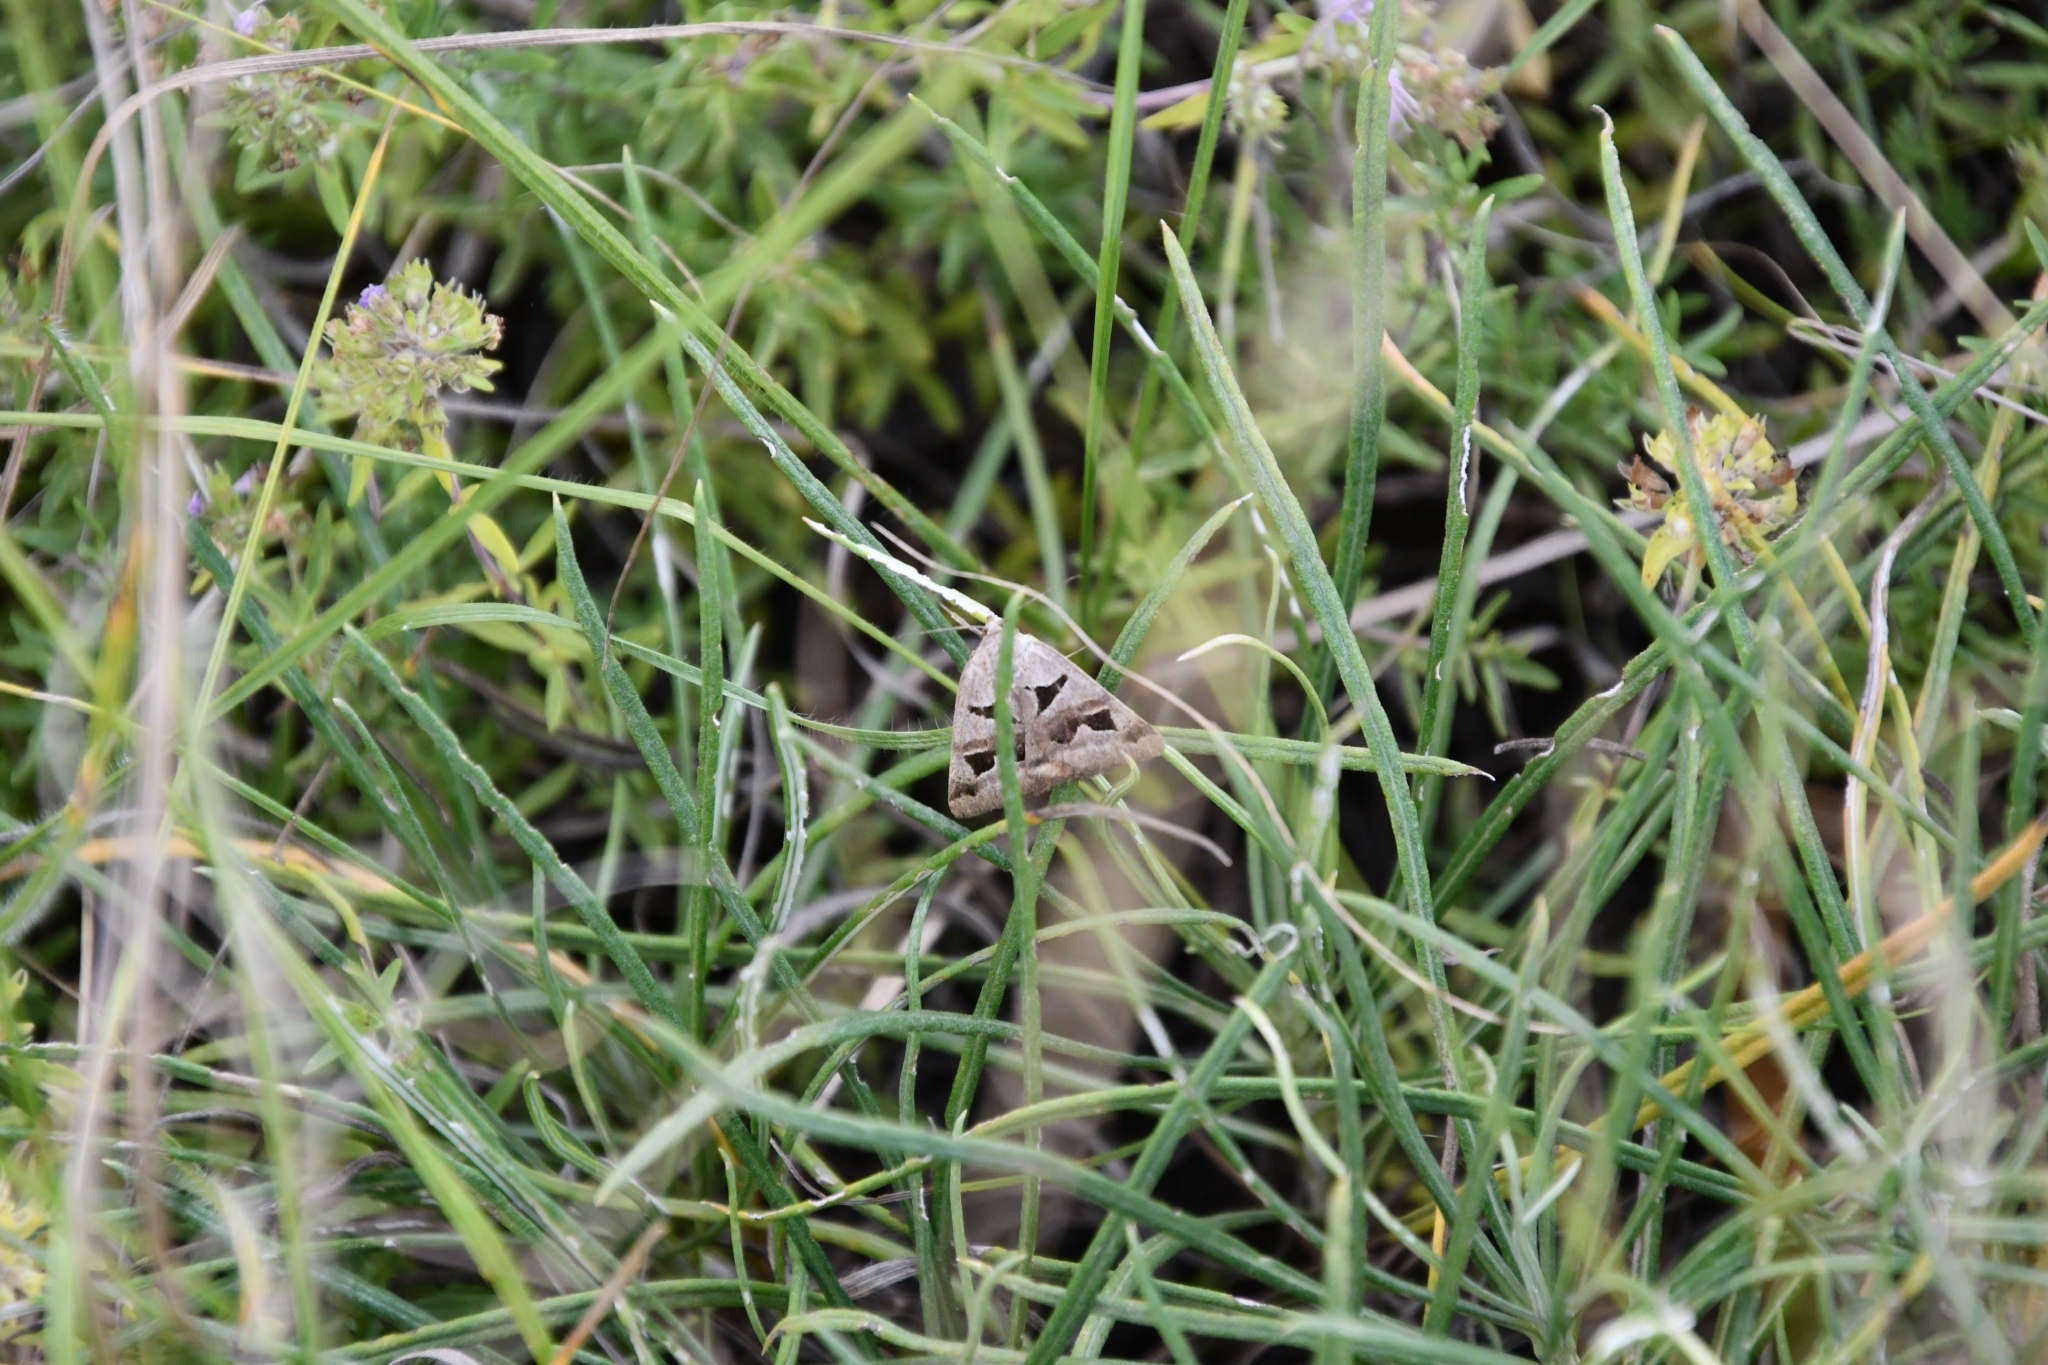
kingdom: Animalia
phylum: Arthropoda
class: Insecta
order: Lepidoptera
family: Erebidae
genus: Euclidia
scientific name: Euclidia triquetra
